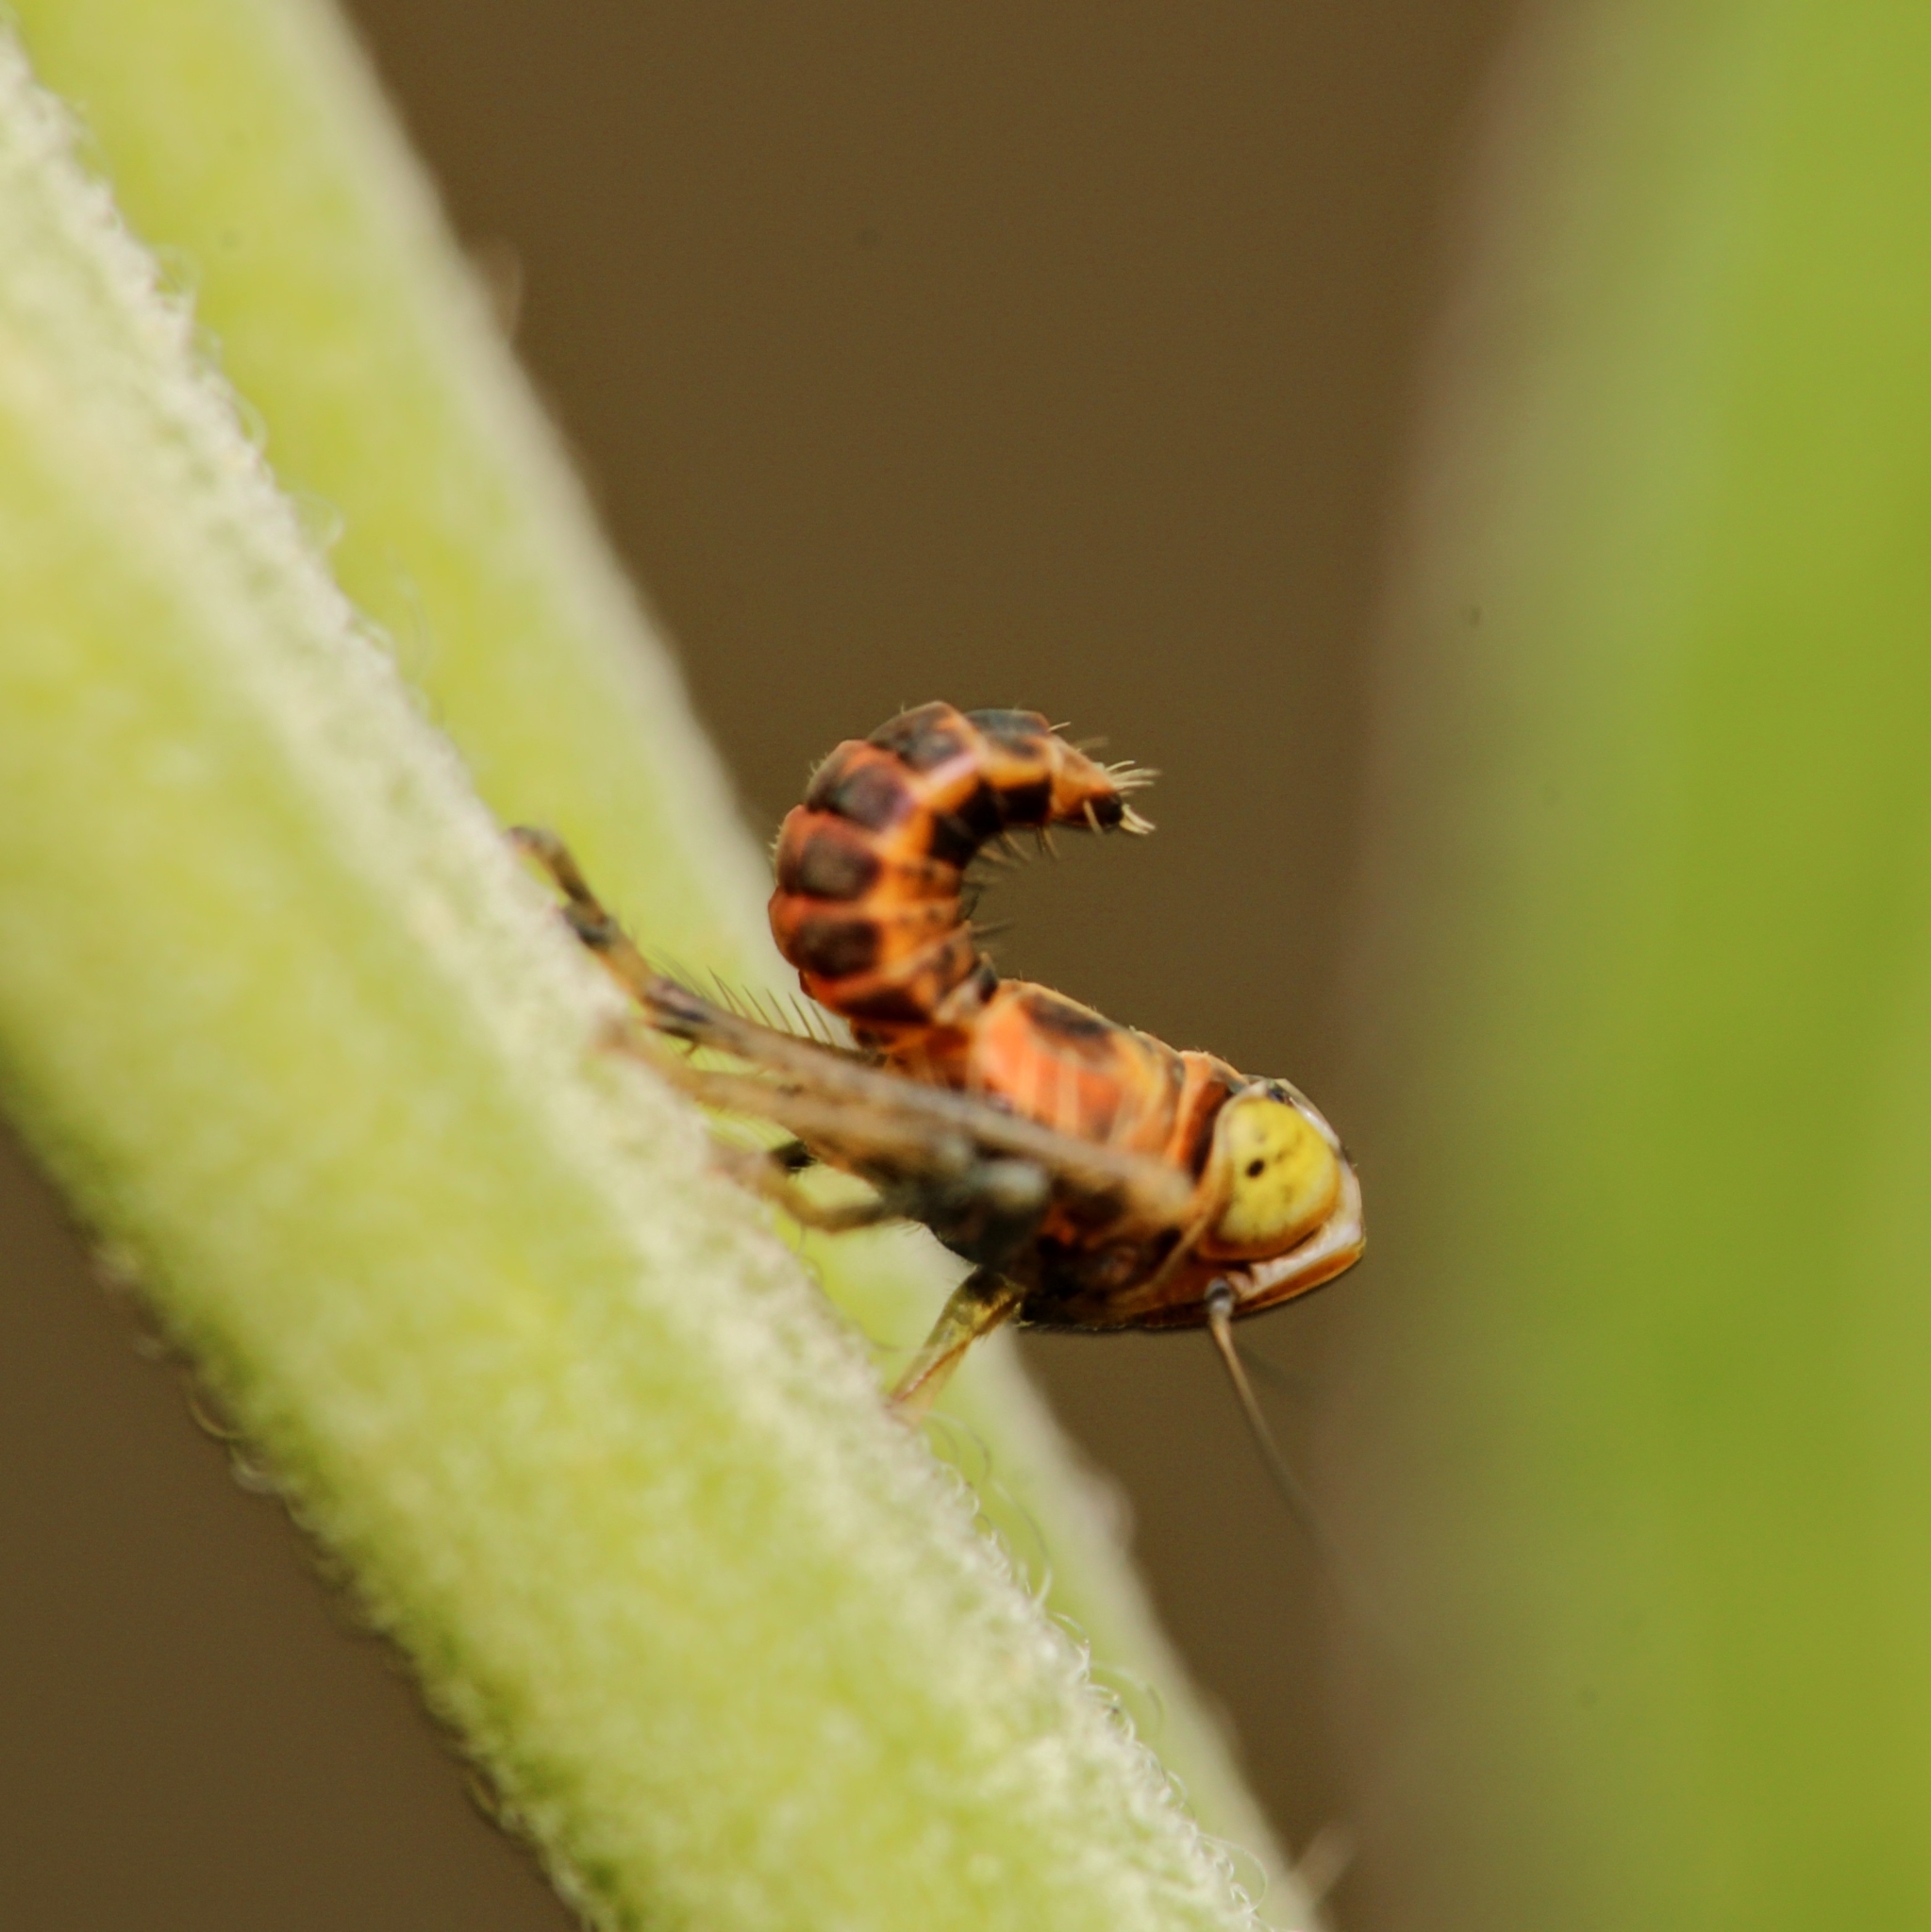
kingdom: Animalia
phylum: Arthropoda
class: Insecta
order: Hemiptera
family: Cicadellidae
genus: Jikradia
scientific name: Jikradia olitoria
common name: Coppery leafhopper
